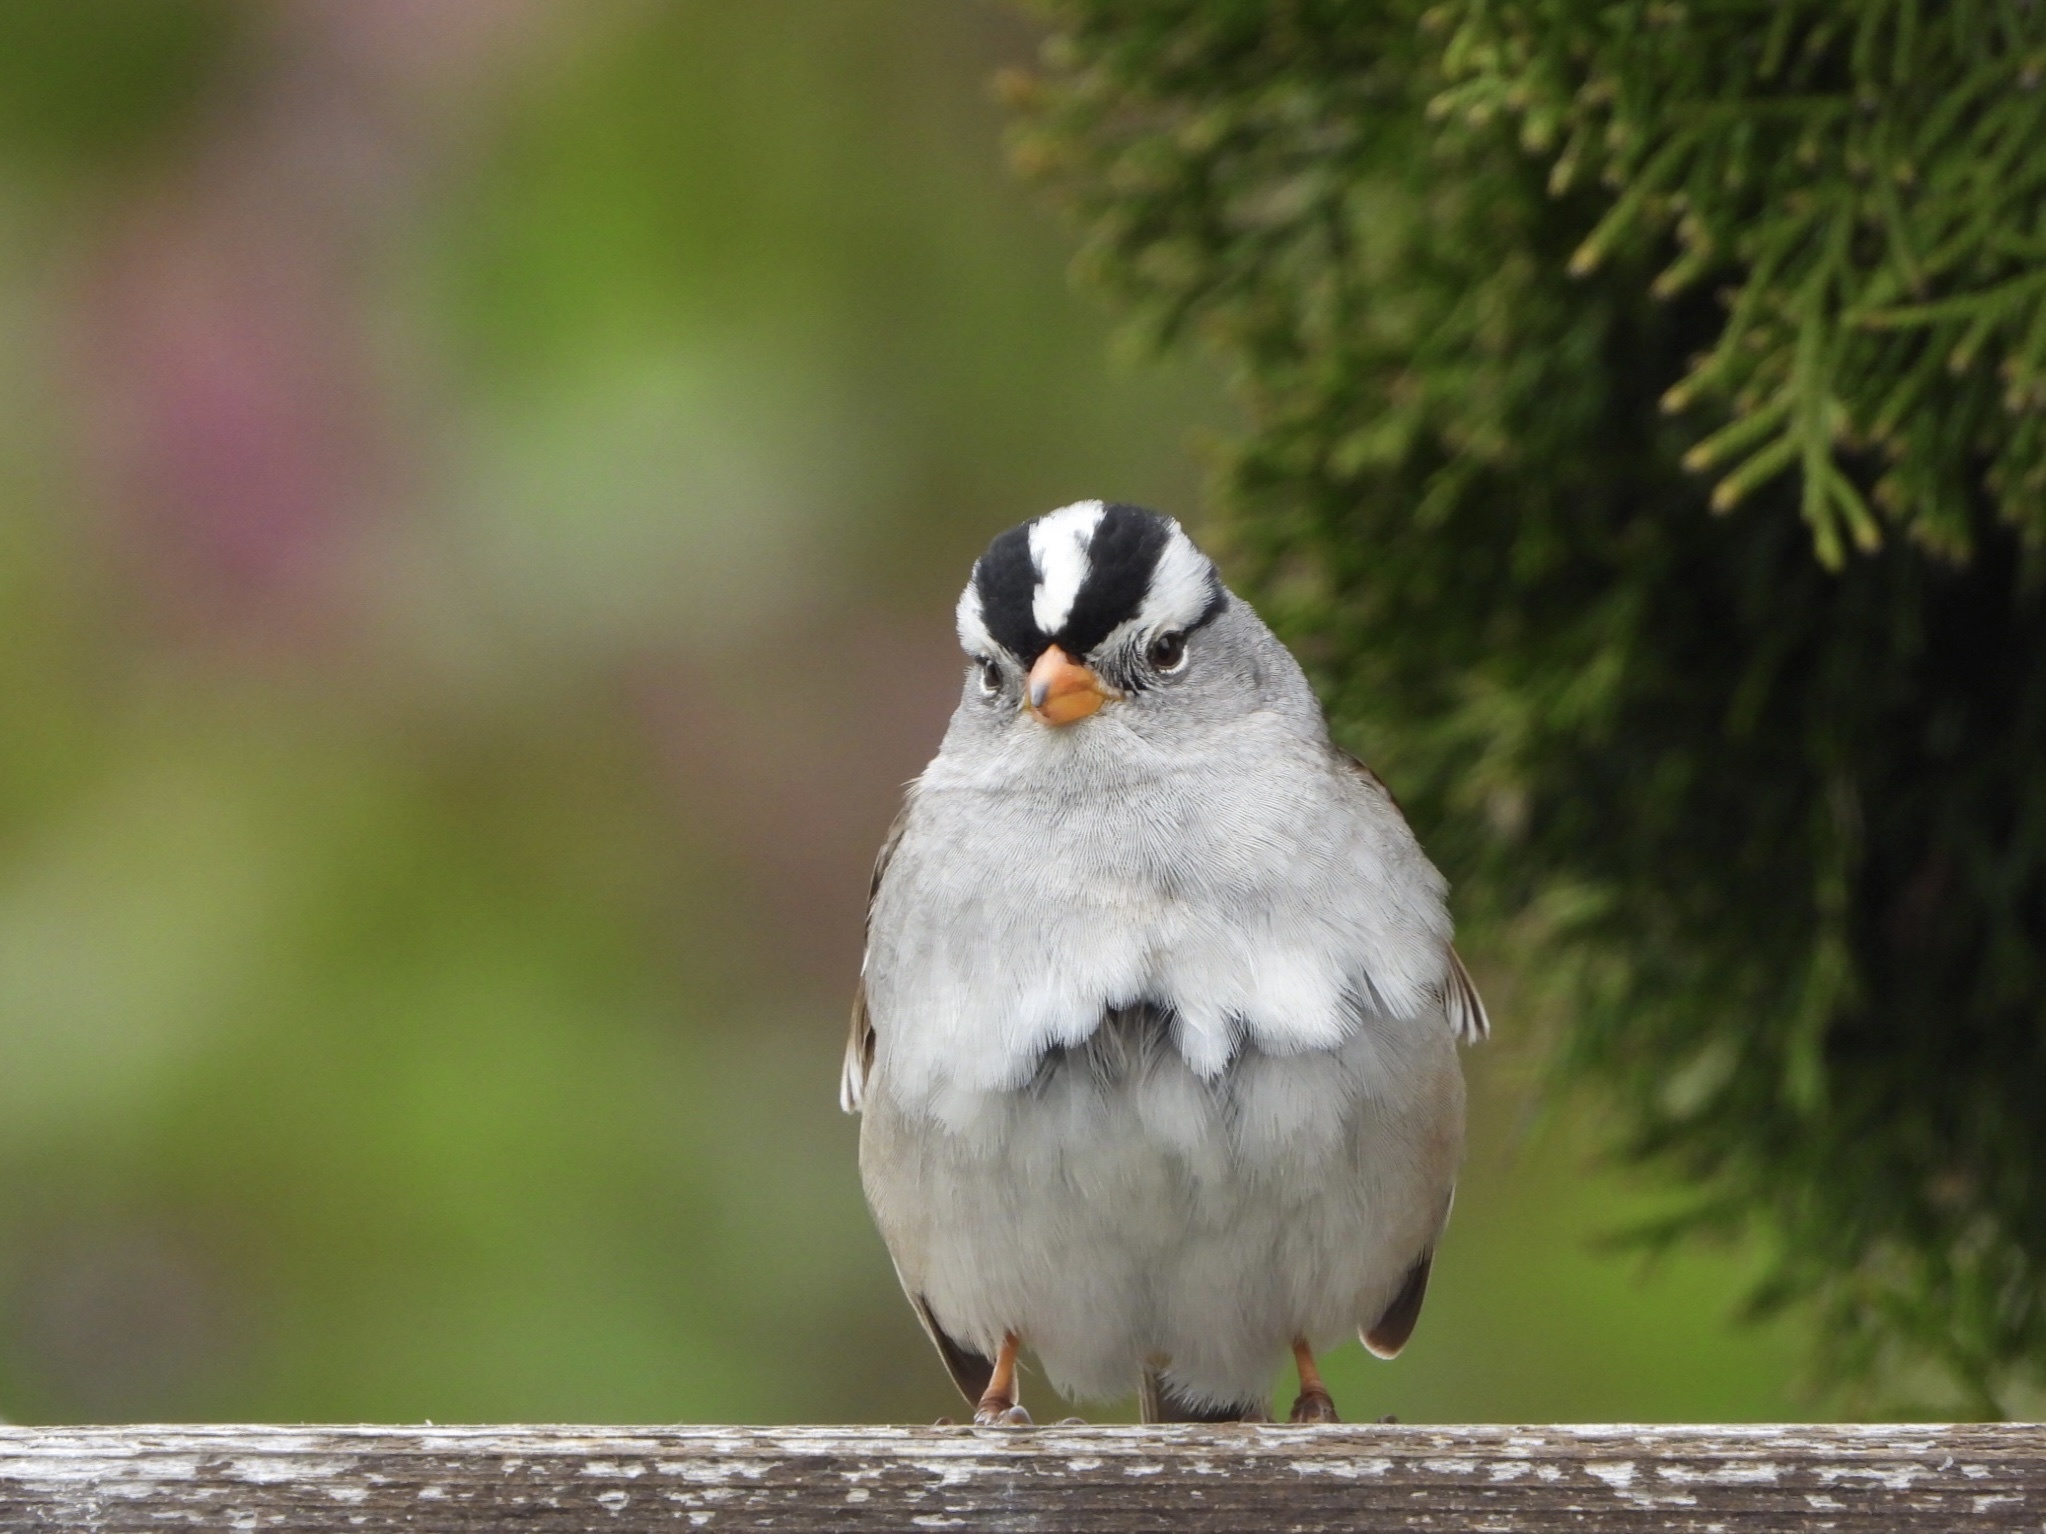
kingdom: Animalia
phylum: Chordata
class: Aves
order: Passeriformes
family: Passerellidae
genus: Zonotrichia
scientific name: Zonotrichia leucophrys
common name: White-crowned sparrow
